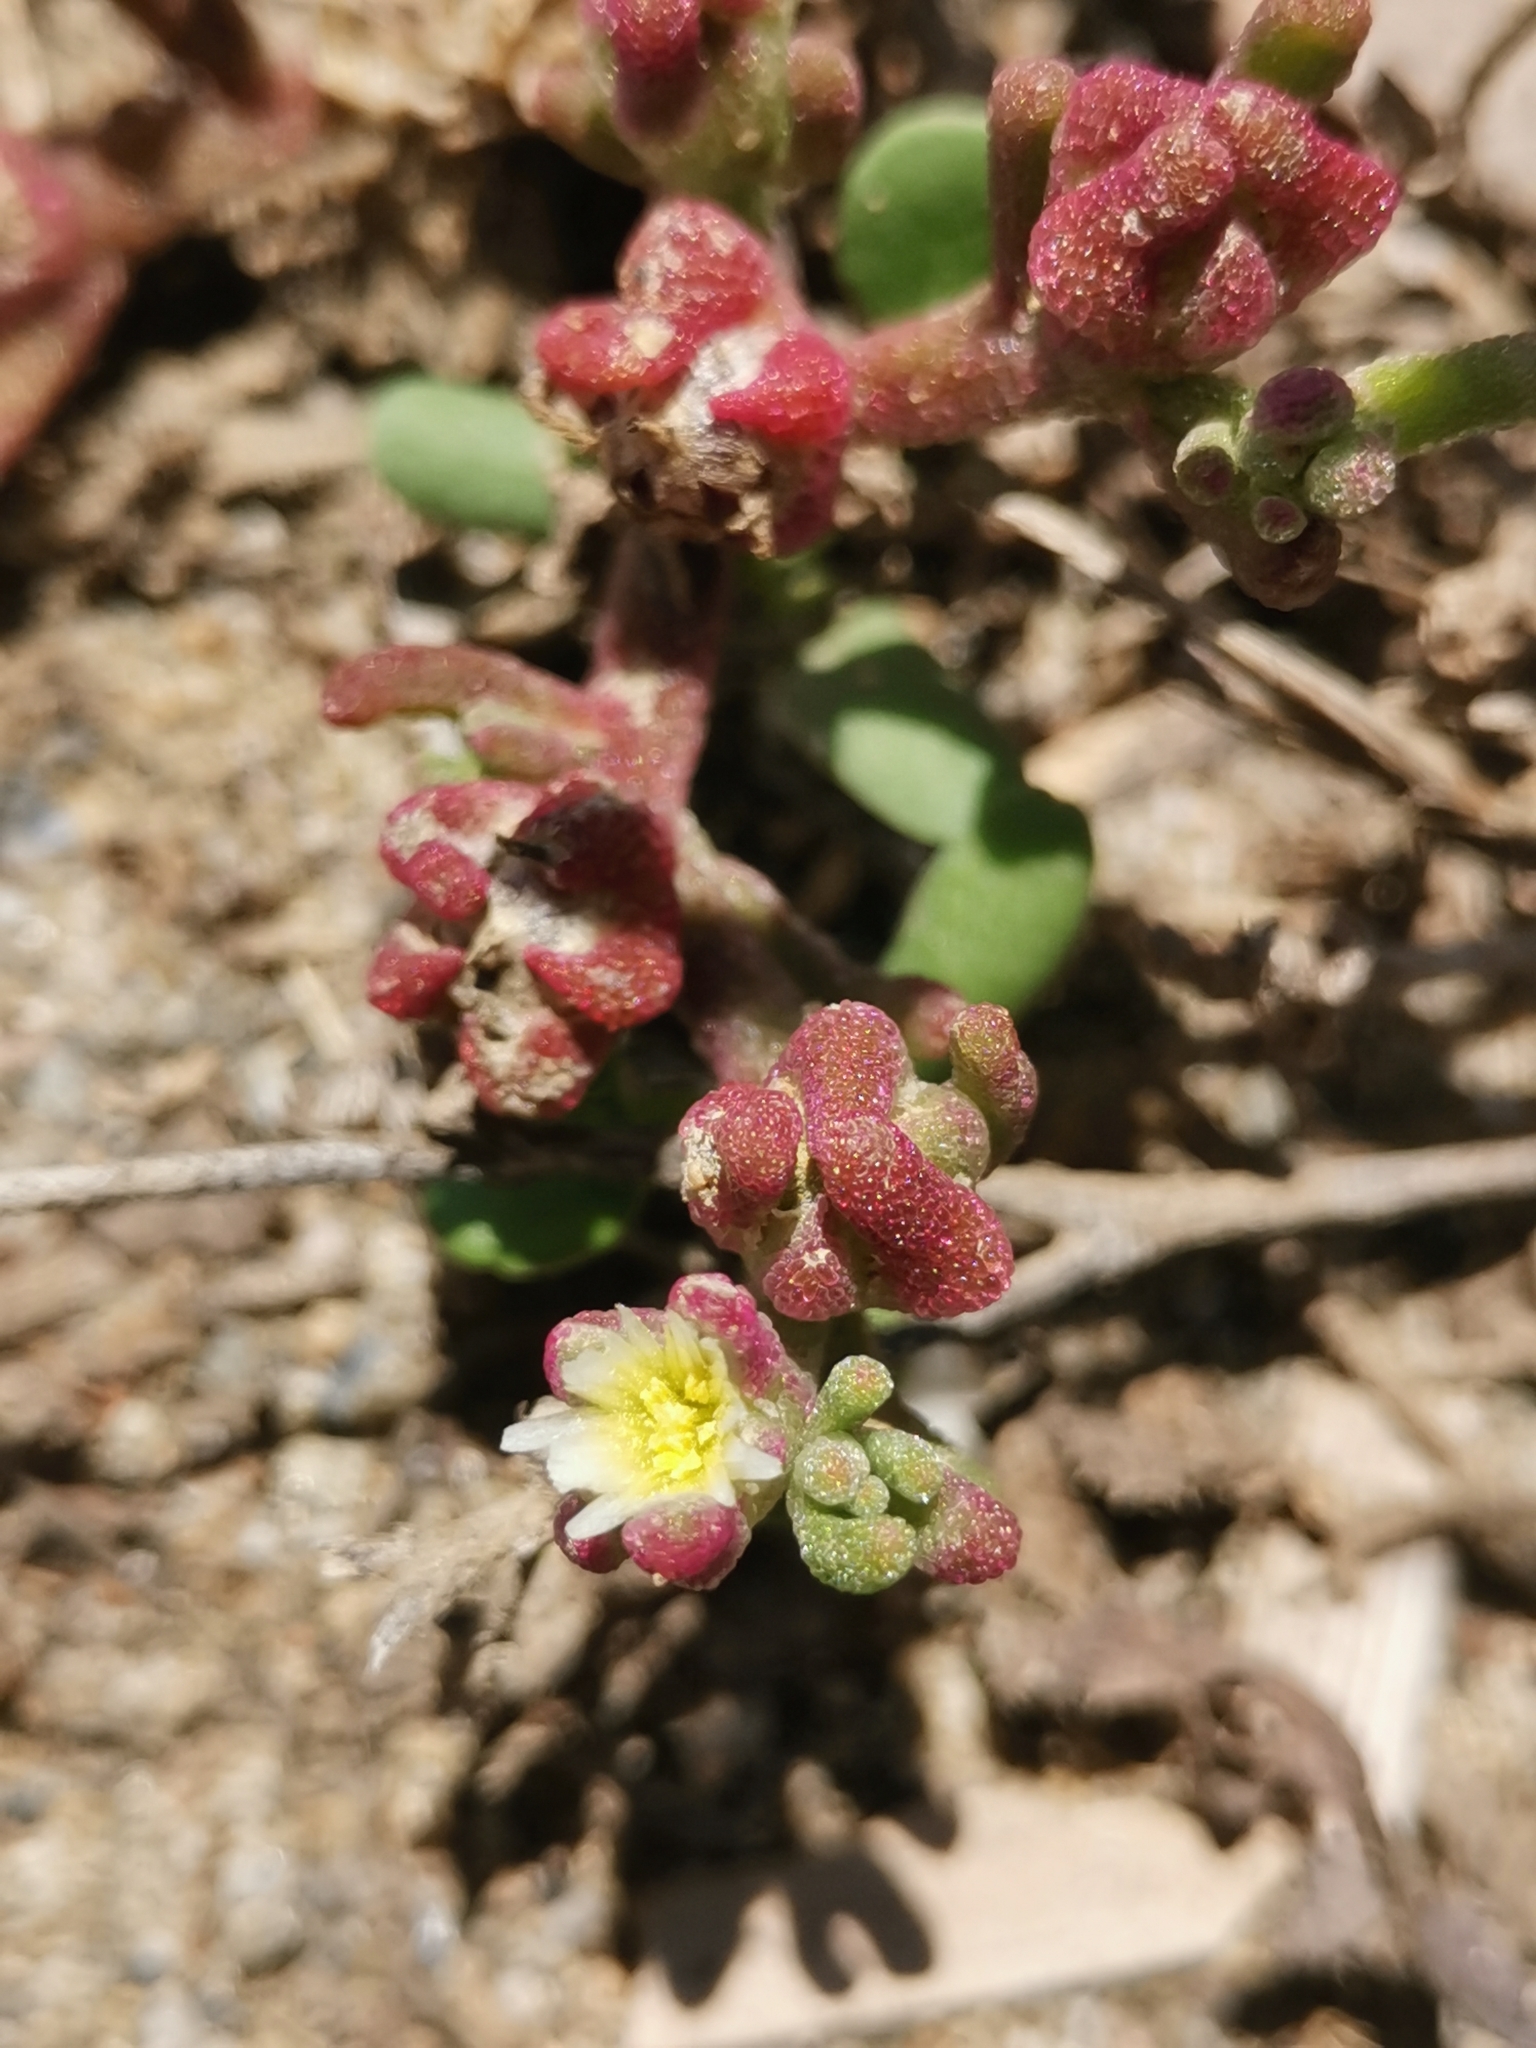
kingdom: Plantae
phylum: Tracheophyta
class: Magnoliopsida
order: Caryophyllales
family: Aizoaceae
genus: Mesembryanthemum
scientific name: Mesembryanthemum nodiflorum
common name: Slenderleaf iceplant
